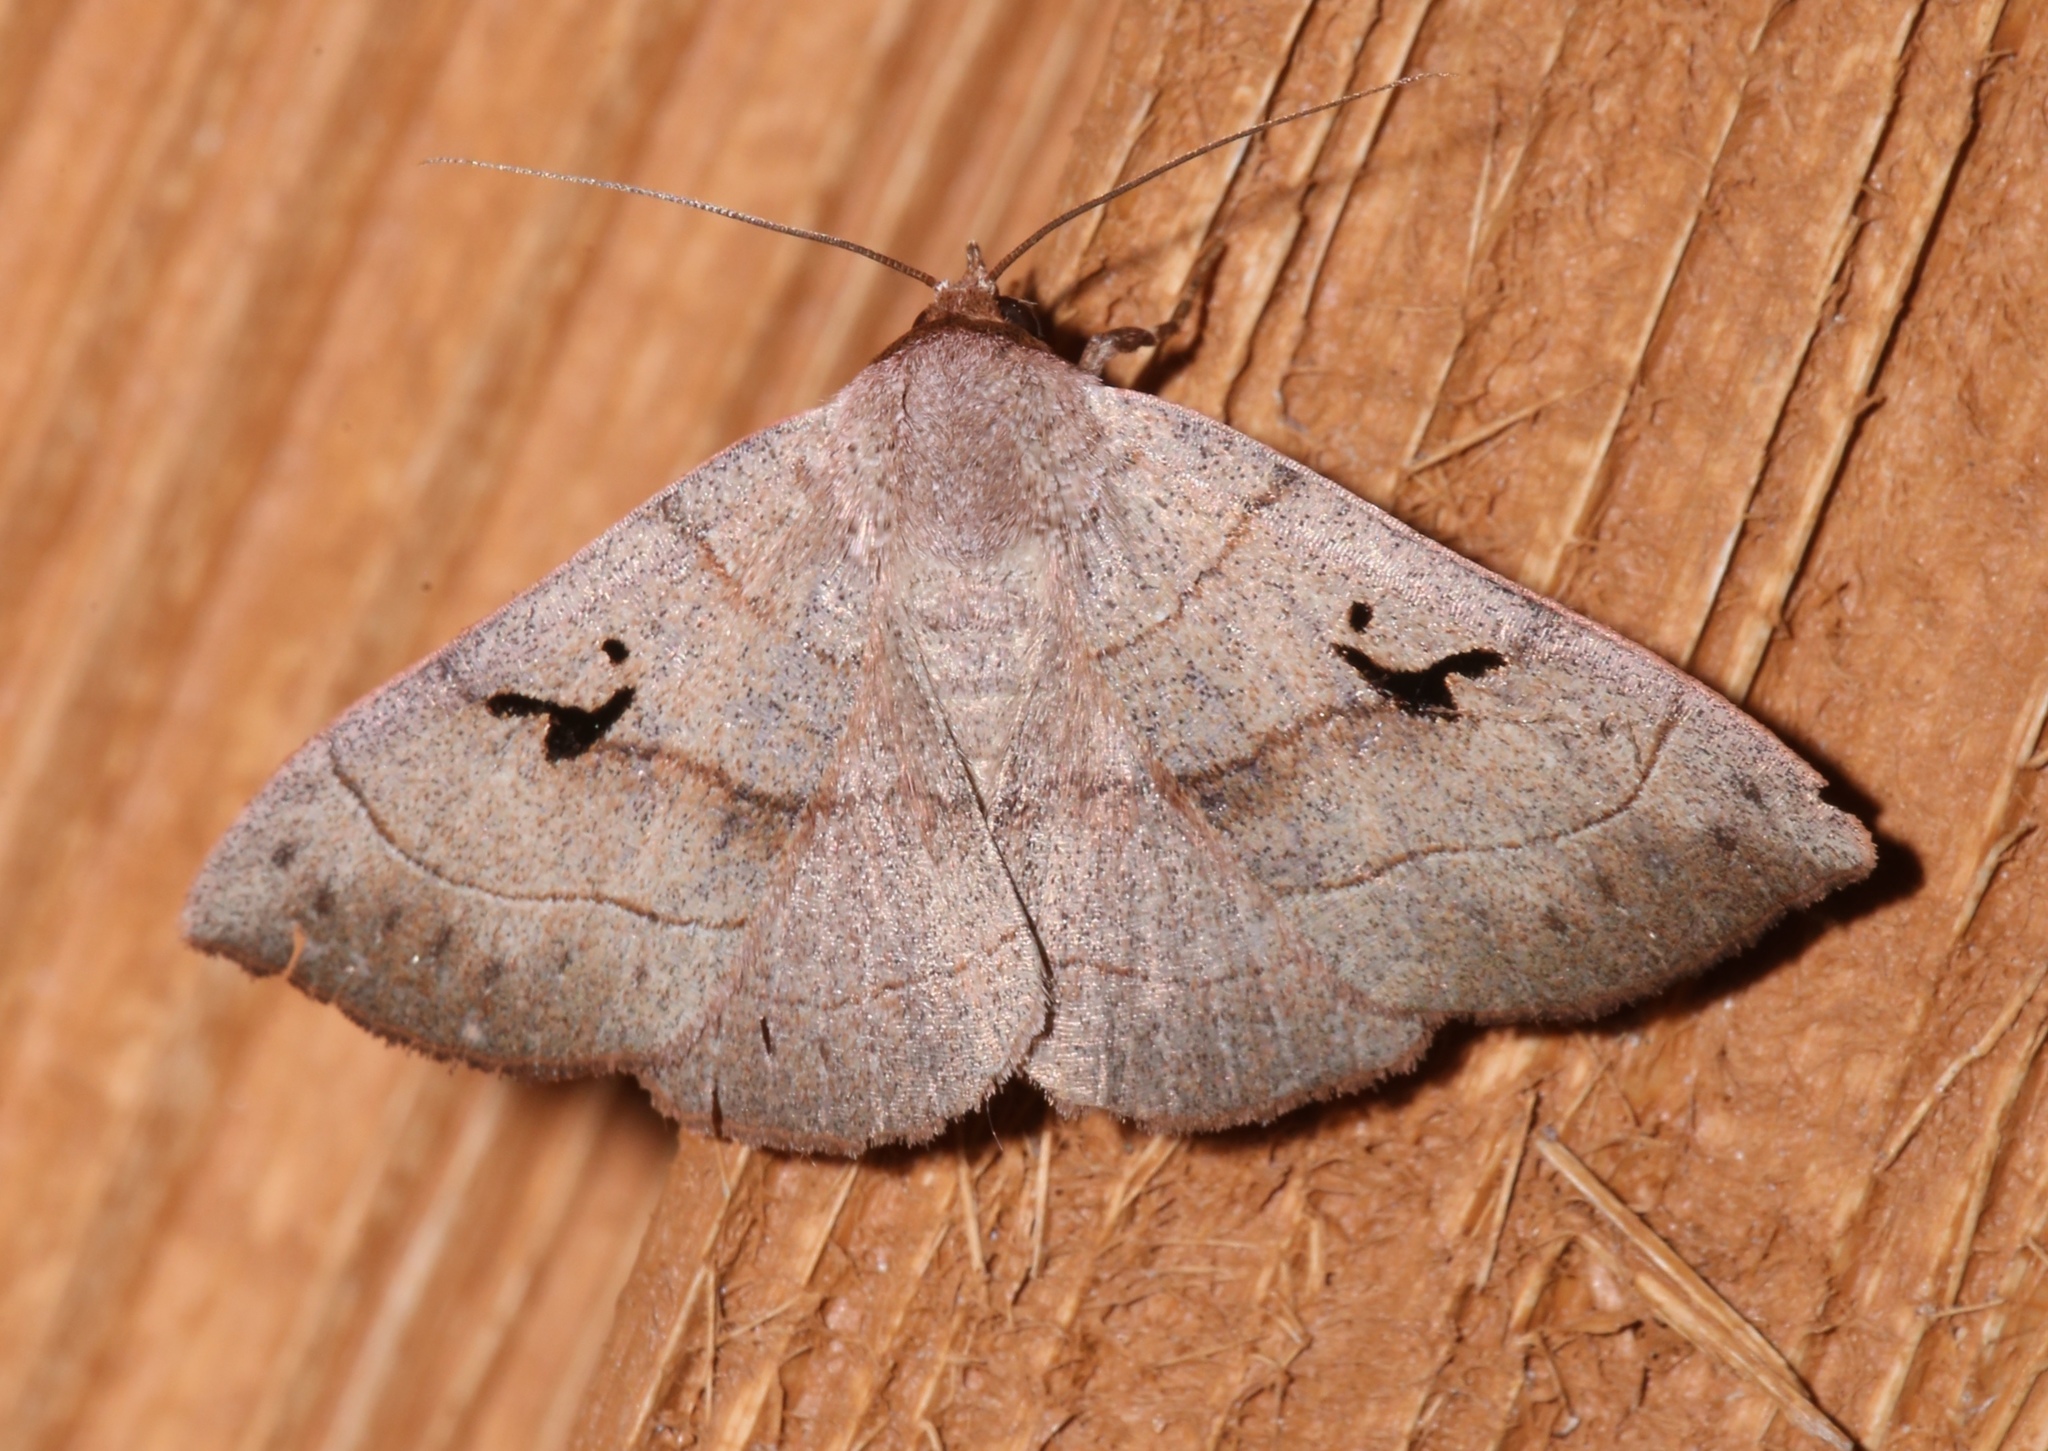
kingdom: Animalia
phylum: Arthropoda
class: Insecta
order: Lepidoptera
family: Erebidae
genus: Panopoda
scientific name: Panopoda carneicosta
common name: Brown panopoda moth
